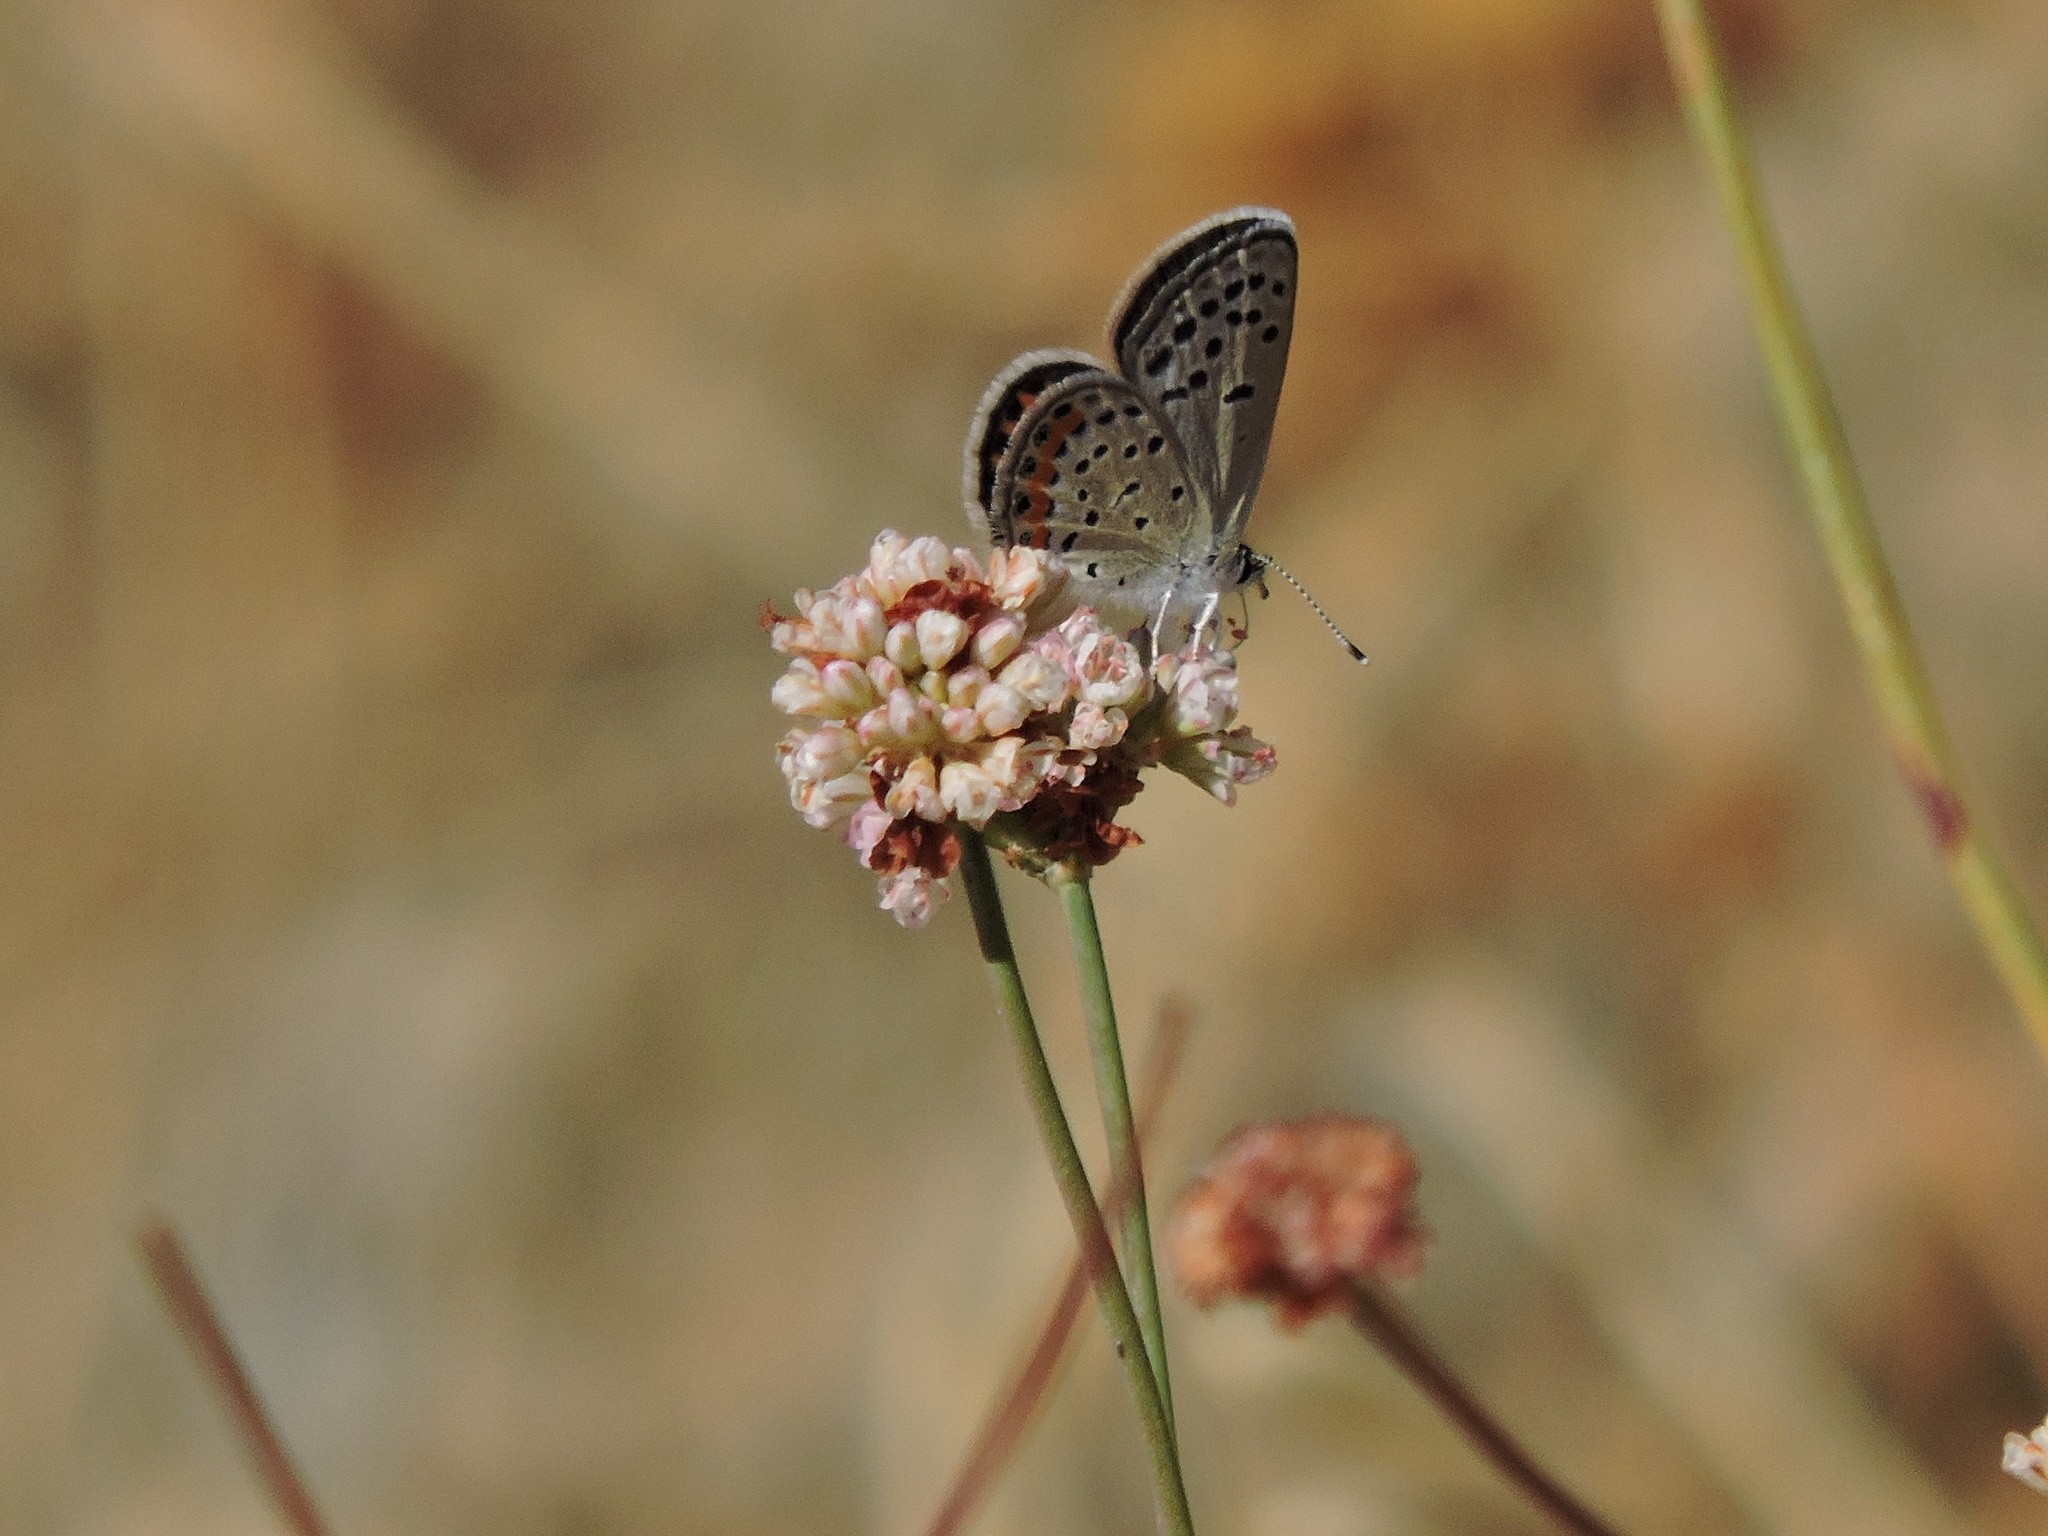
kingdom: Animalia
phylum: Arthropoda
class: Insecta
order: Lepidoptera
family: Lycaenidae
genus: Icaricia
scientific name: Icaricia acmon
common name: Acmon blue
